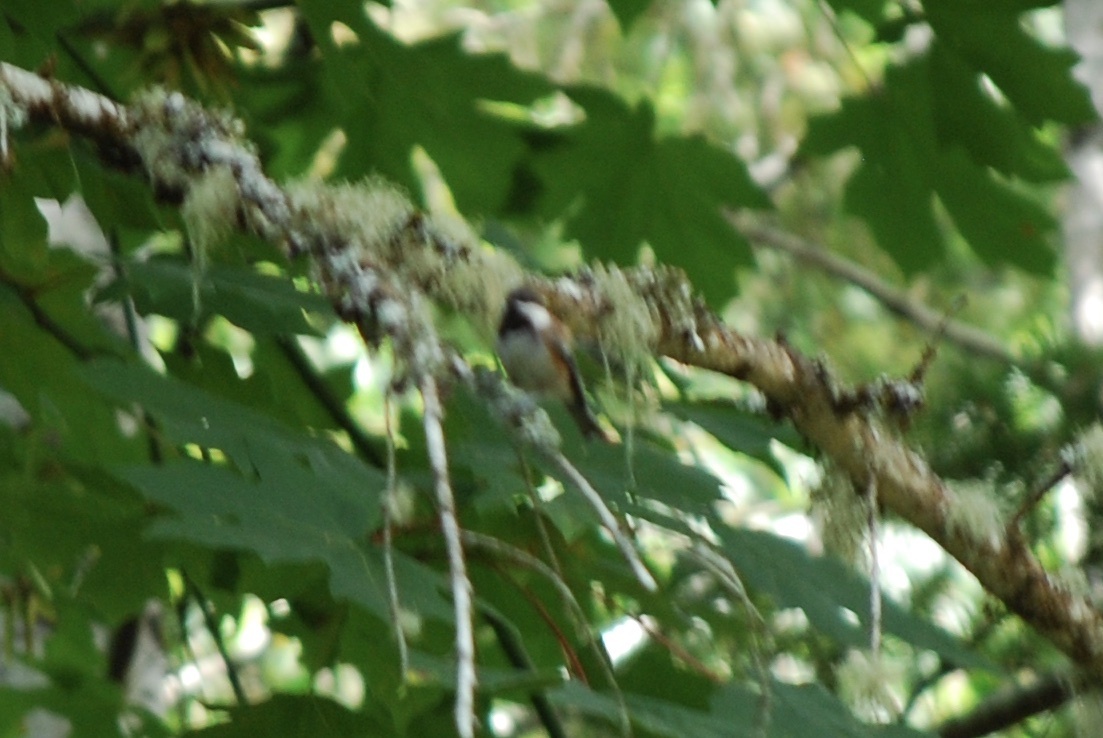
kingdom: Animalia
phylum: Chordata
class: Aves
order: Passeriformes
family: Paridae
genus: Poecile
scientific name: Poecile rufescens
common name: Chestnut-backed chickadee
